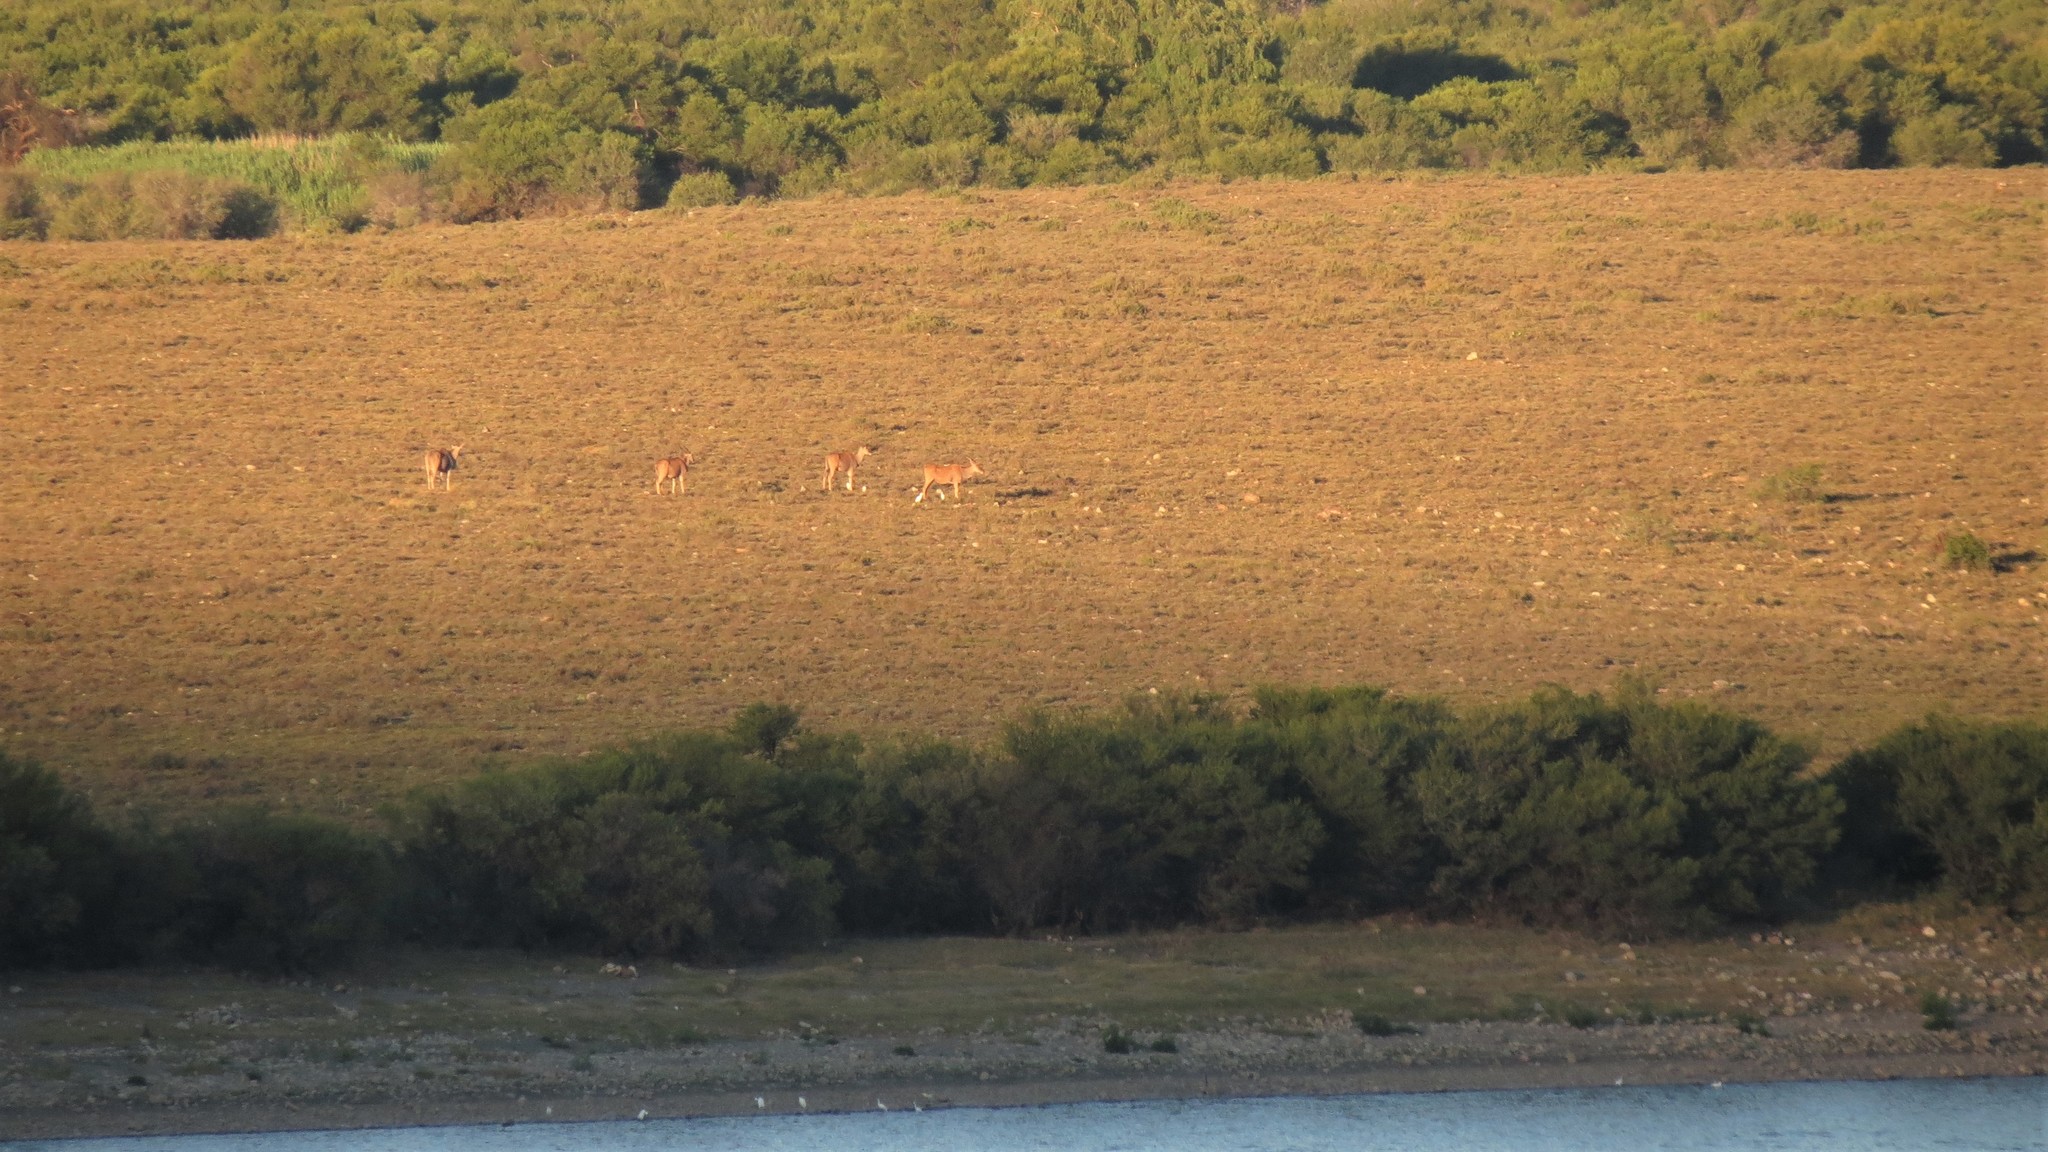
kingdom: Animalia
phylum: Chordata
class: Mammalia
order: Artiodactyla
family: Bovidae
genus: Taurotragus
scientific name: Taurotragus oryx
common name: Common eland
